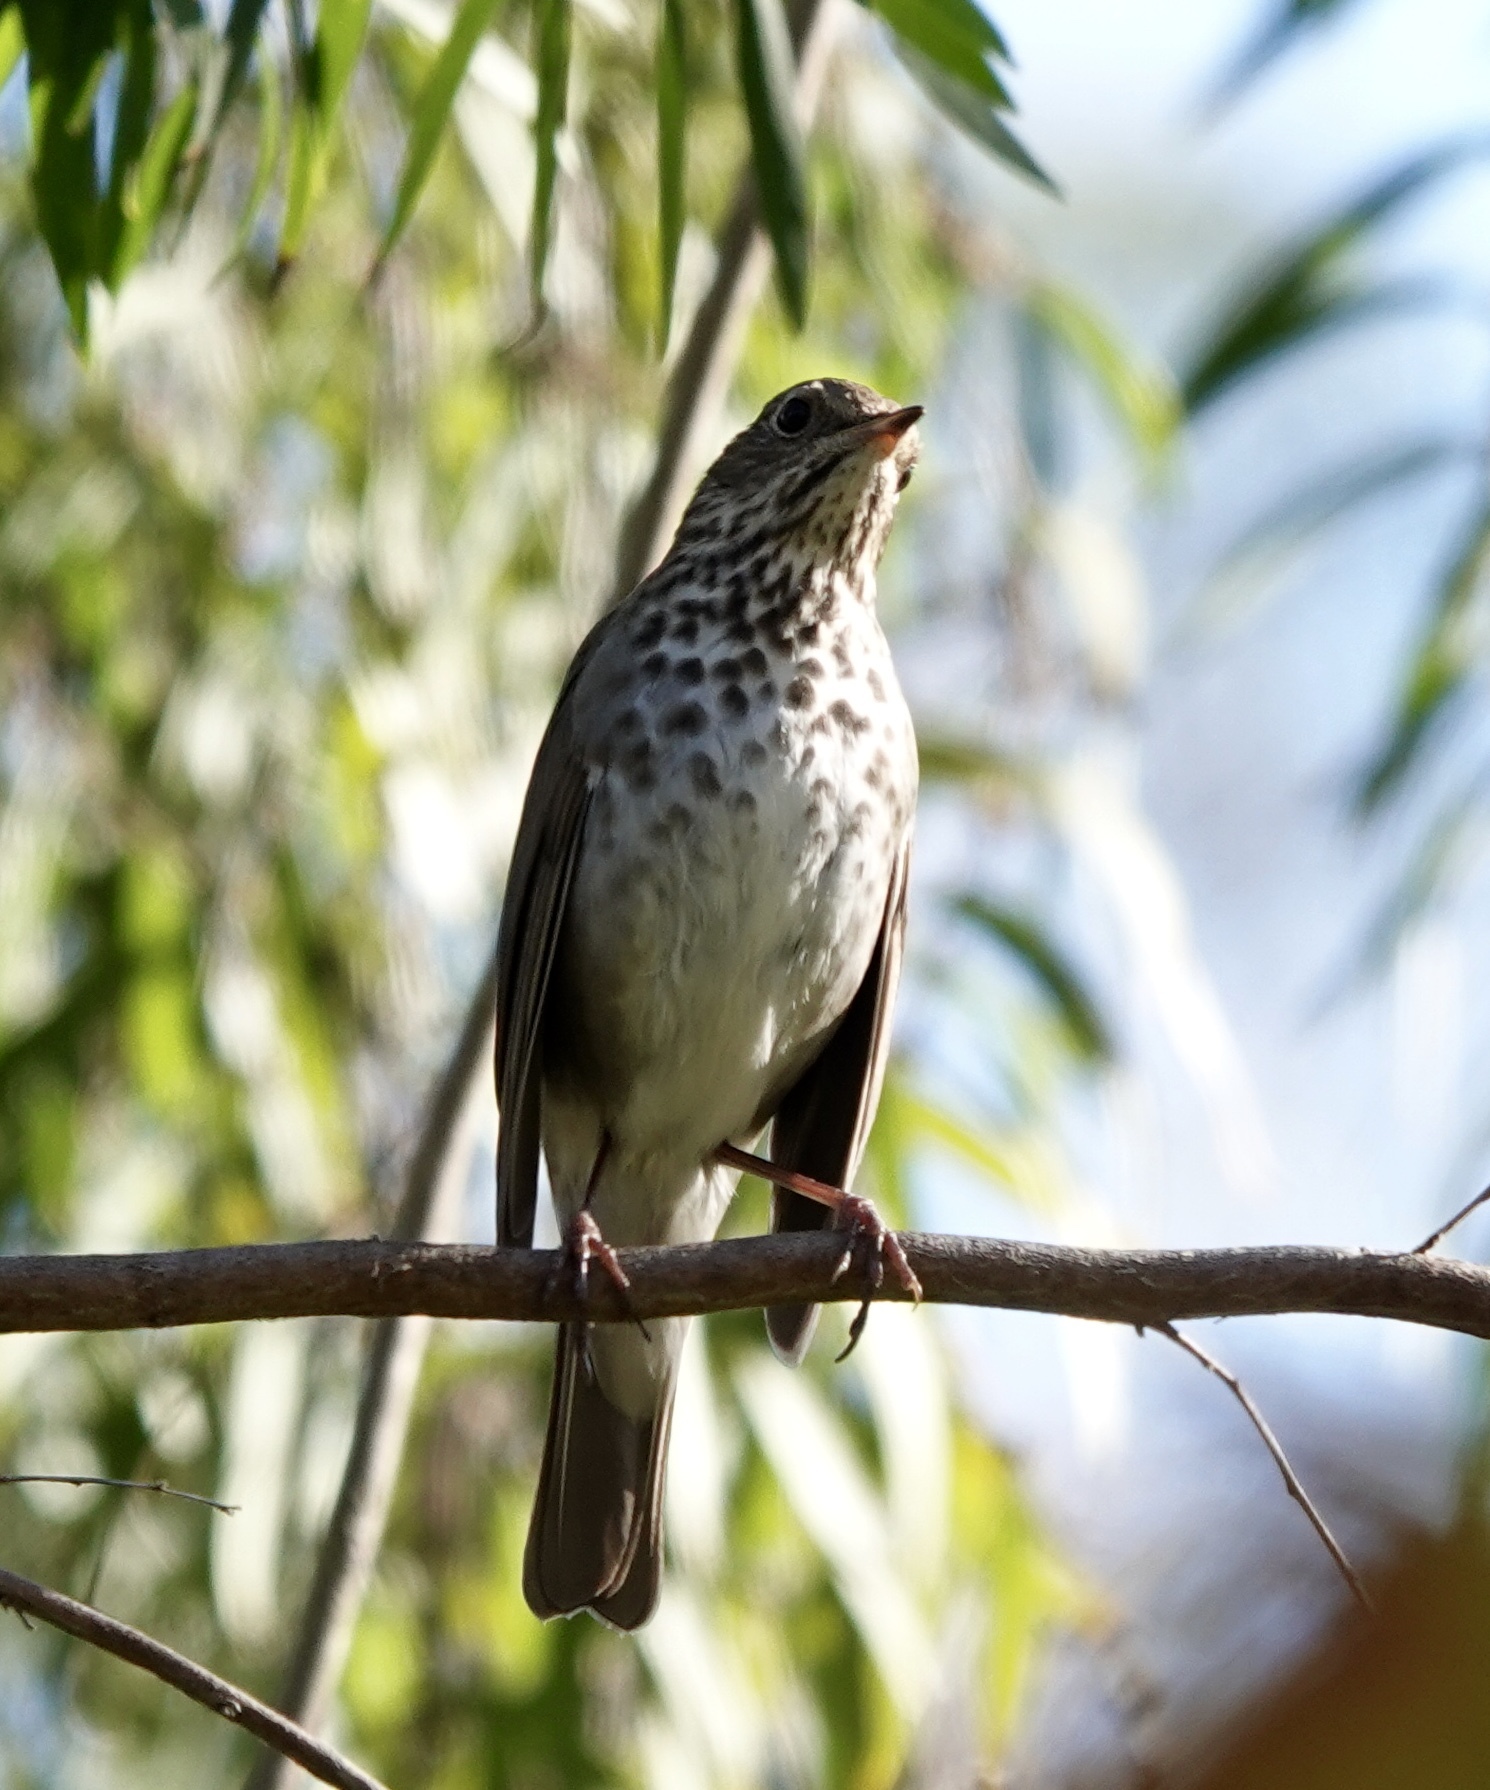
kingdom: Animalia
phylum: Chordata
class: Aves
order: Passeriformes
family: Turdidae
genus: Catharus
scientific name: Catharus guttatus
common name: Hermit thrush
